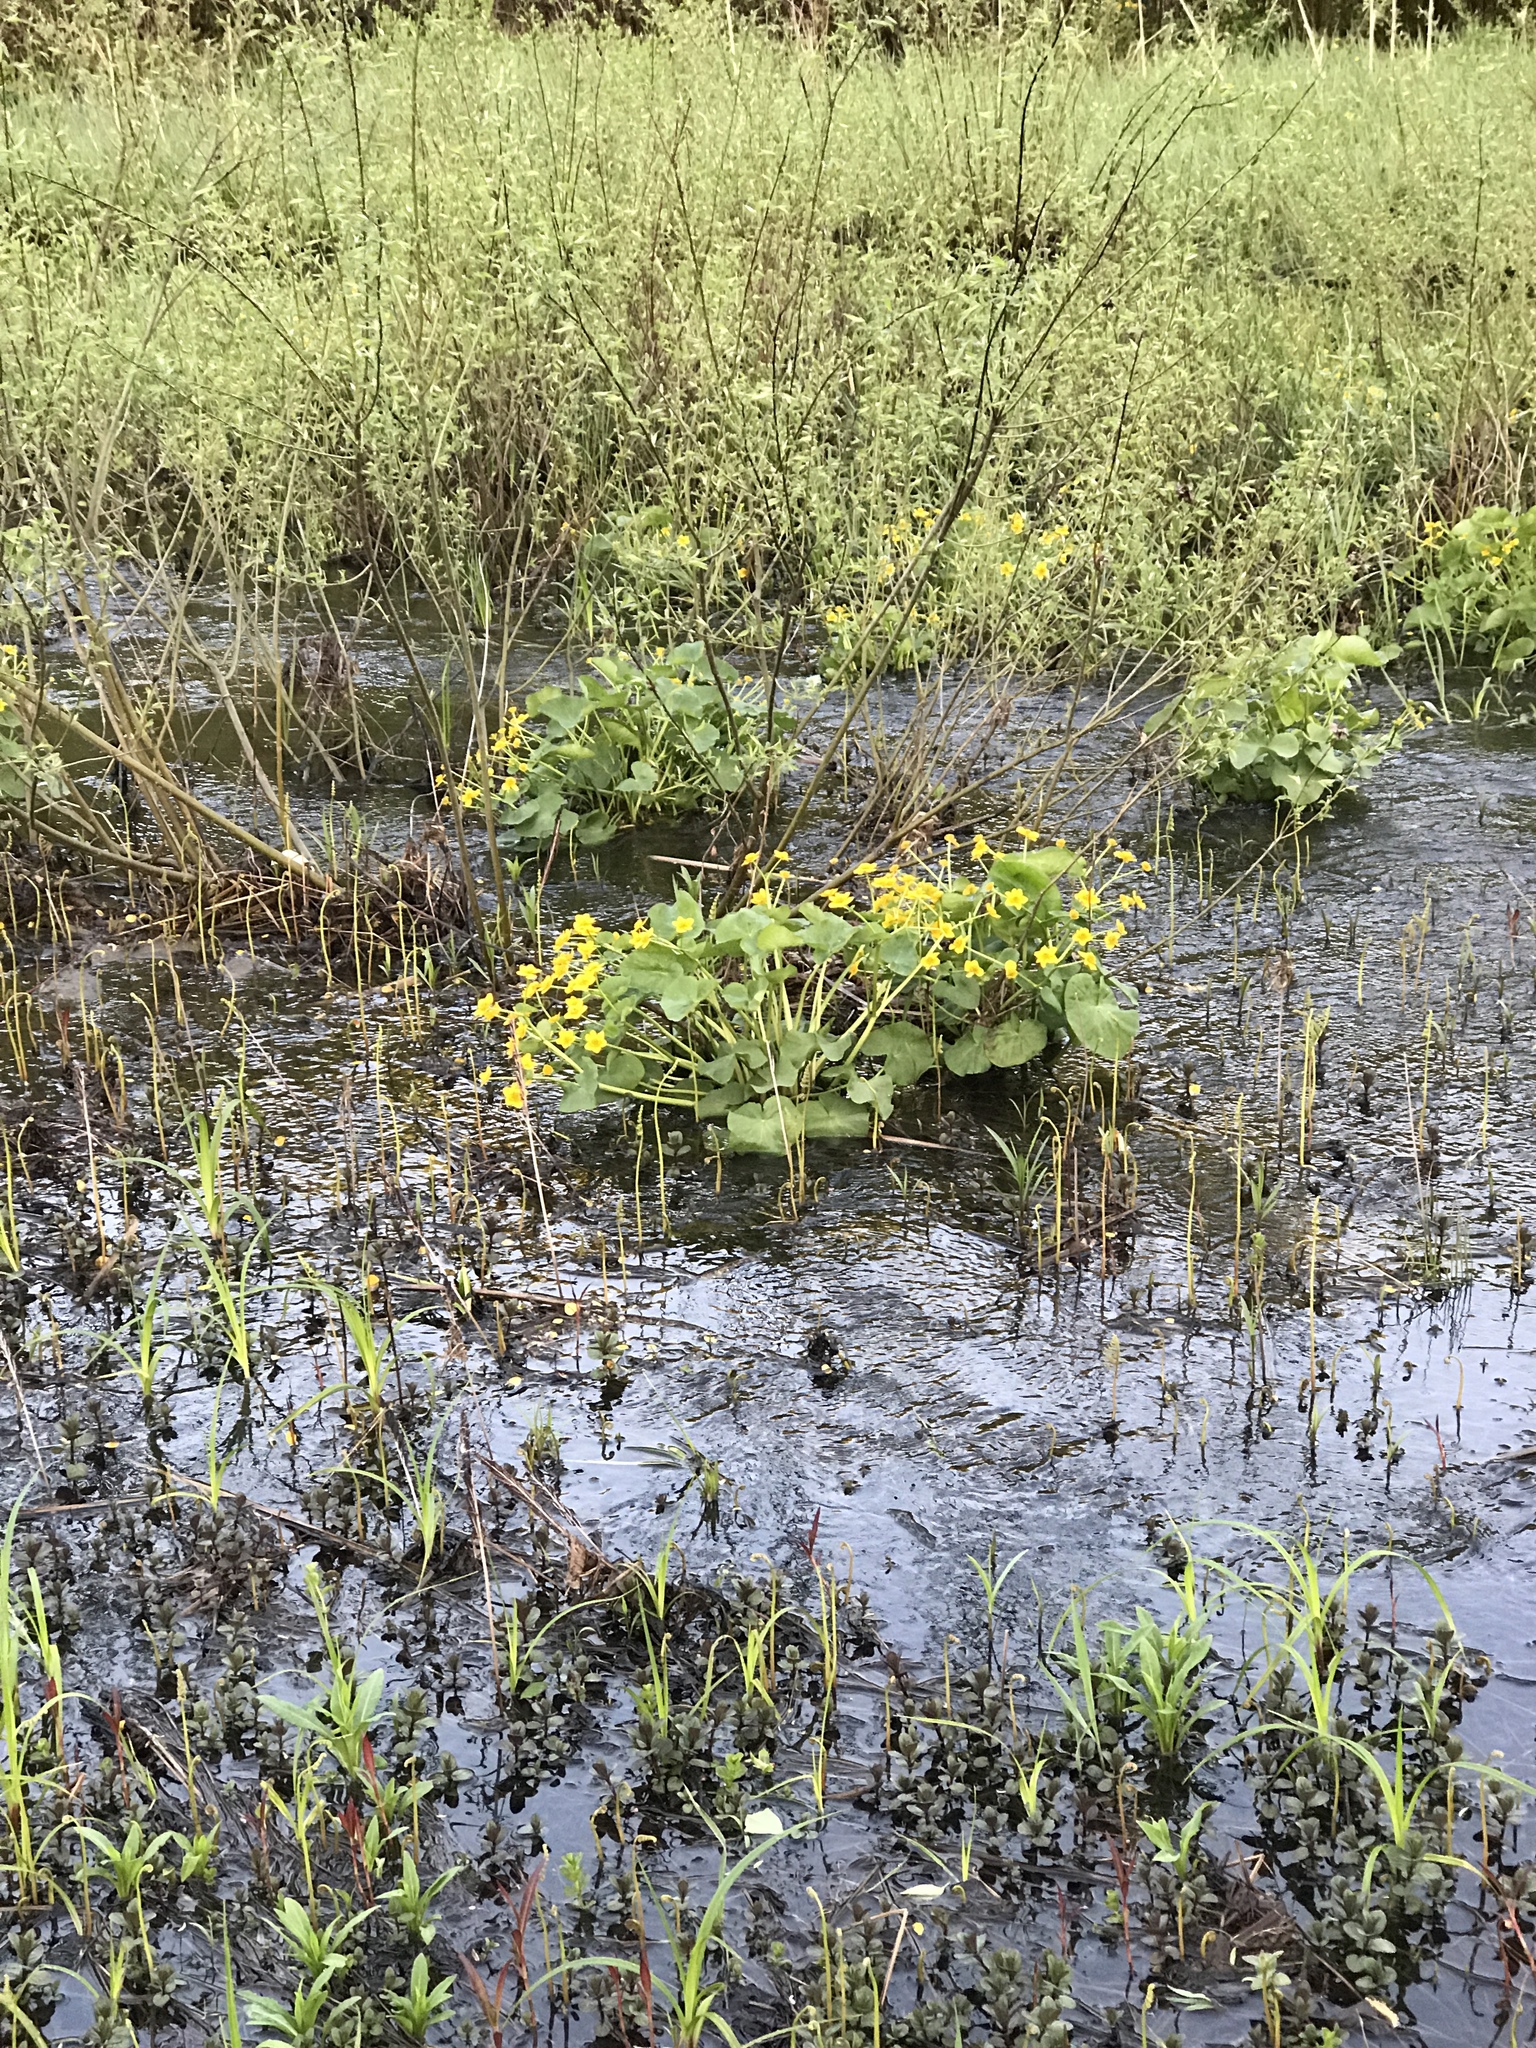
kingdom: Plantae
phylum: Tracheophyta
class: Magnoliopsida
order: Ranunculales
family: Ranunculaceae
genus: Caltha
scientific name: Caltha palustris
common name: Marsh marigold
